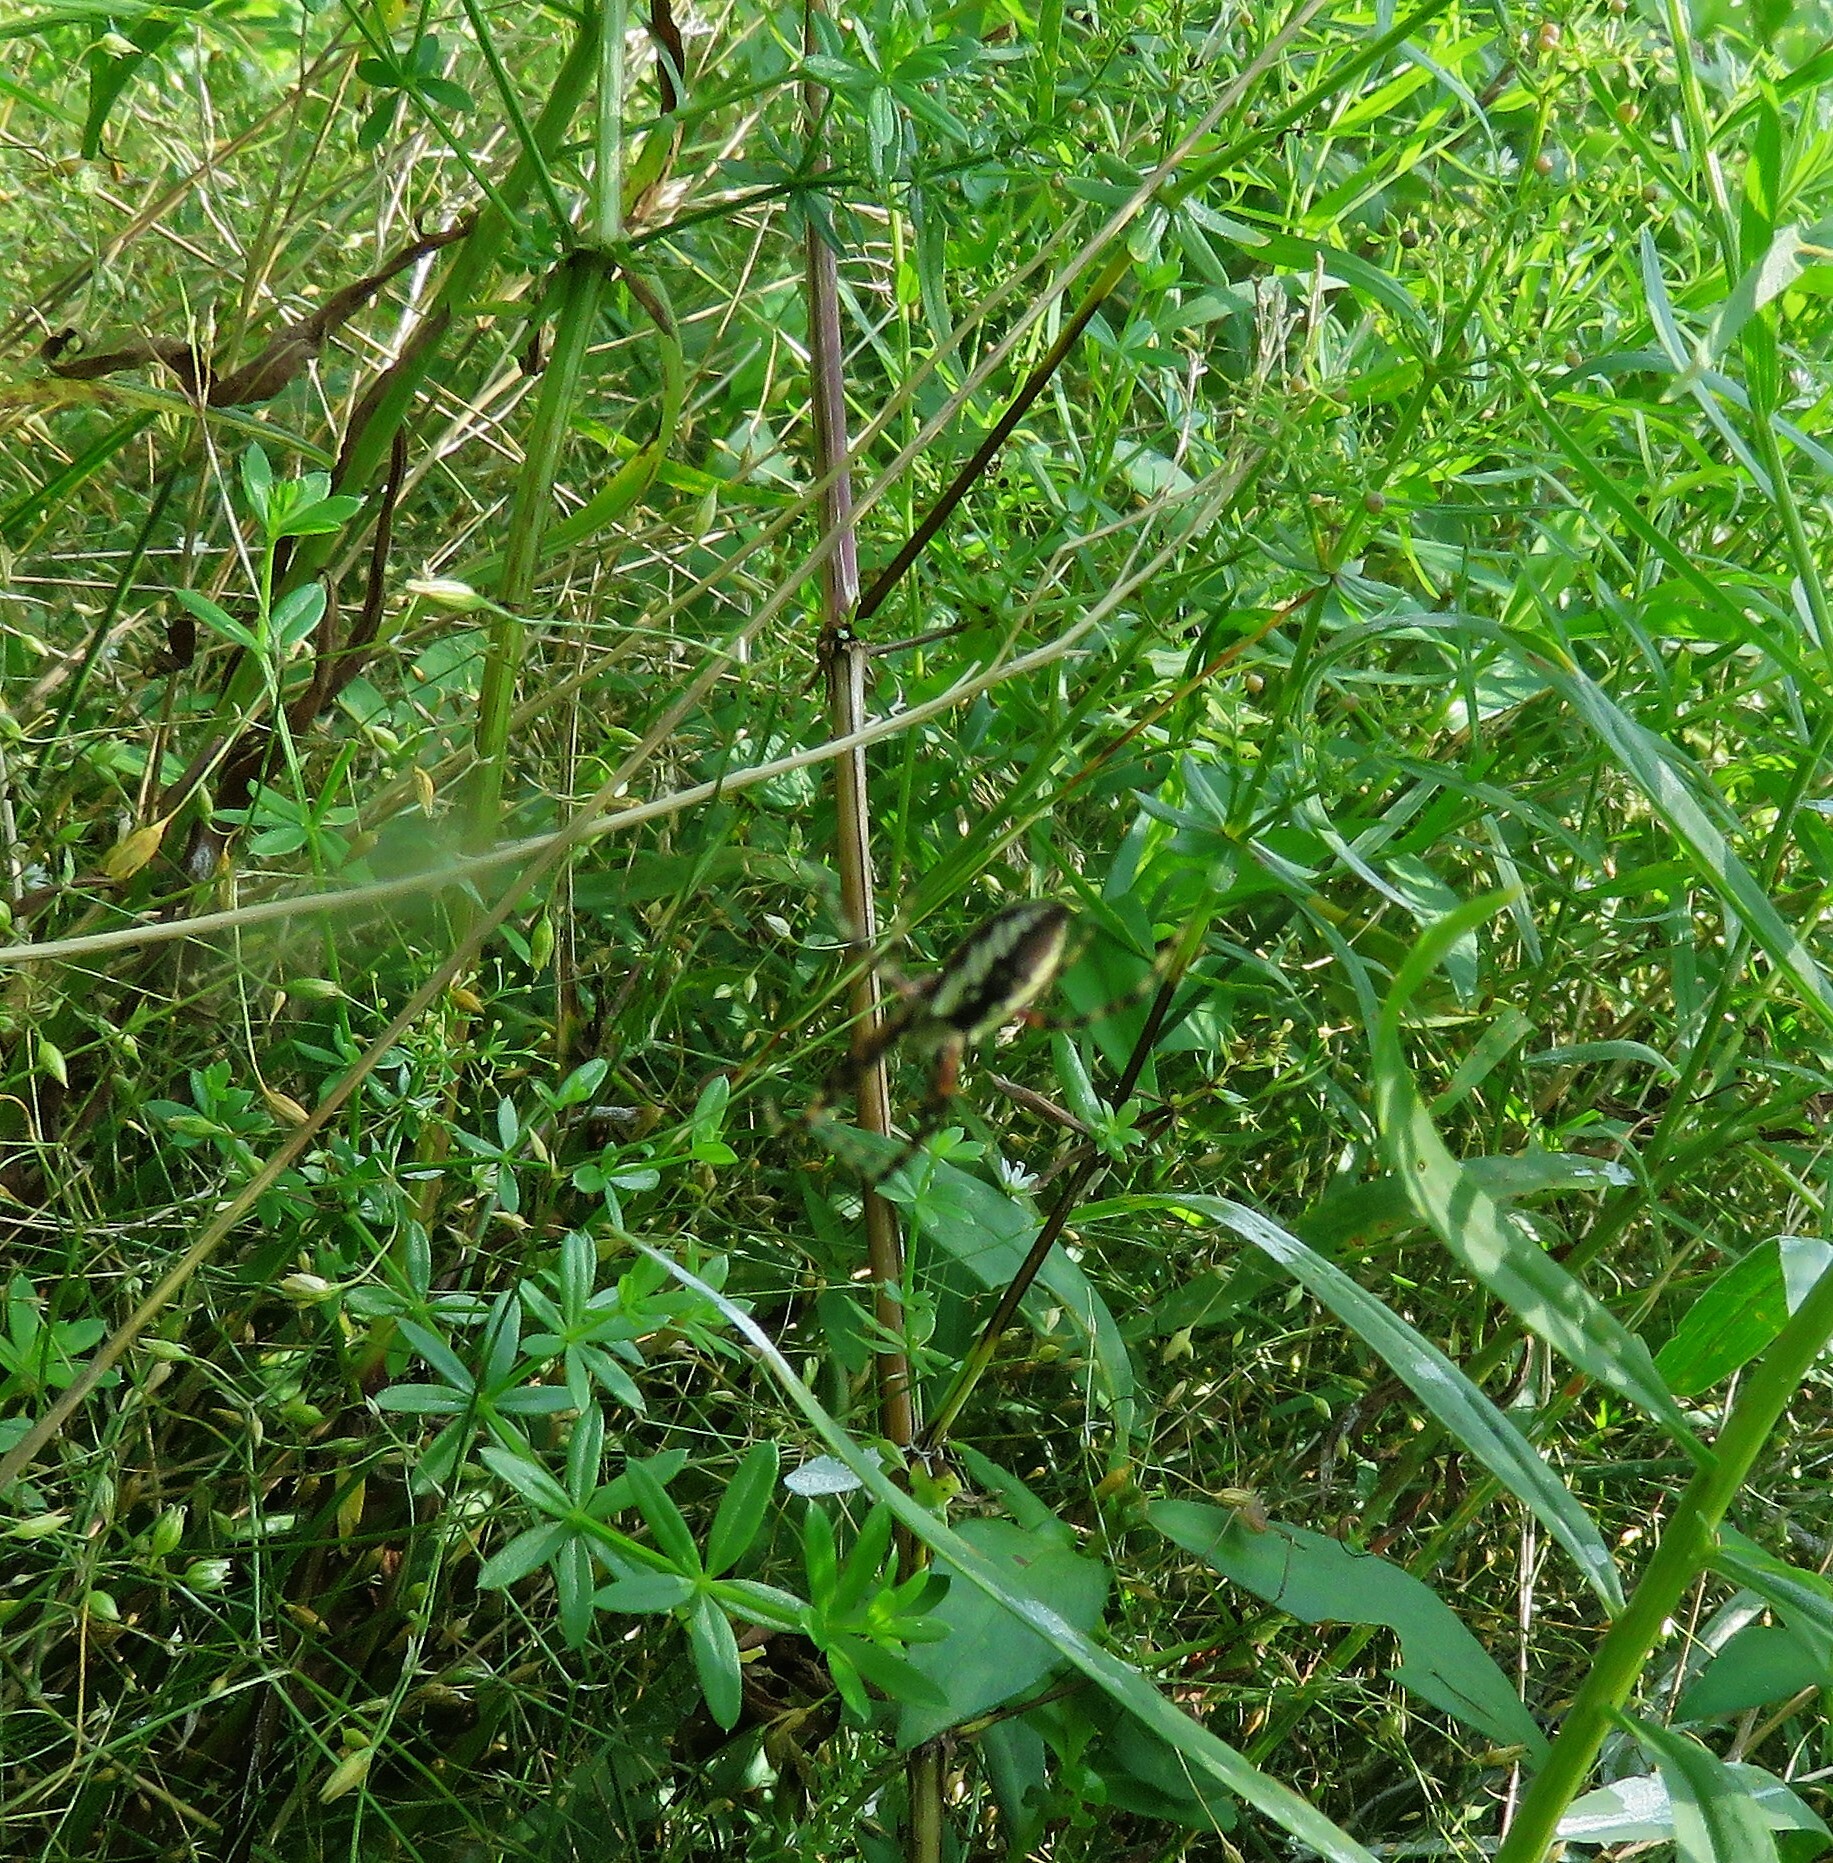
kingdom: Animalia
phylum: Arthropoda
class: Arachnida
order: Araneae
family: Araneidae
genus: Argiope
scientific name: Argiope aurantia
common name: Orb weavers
